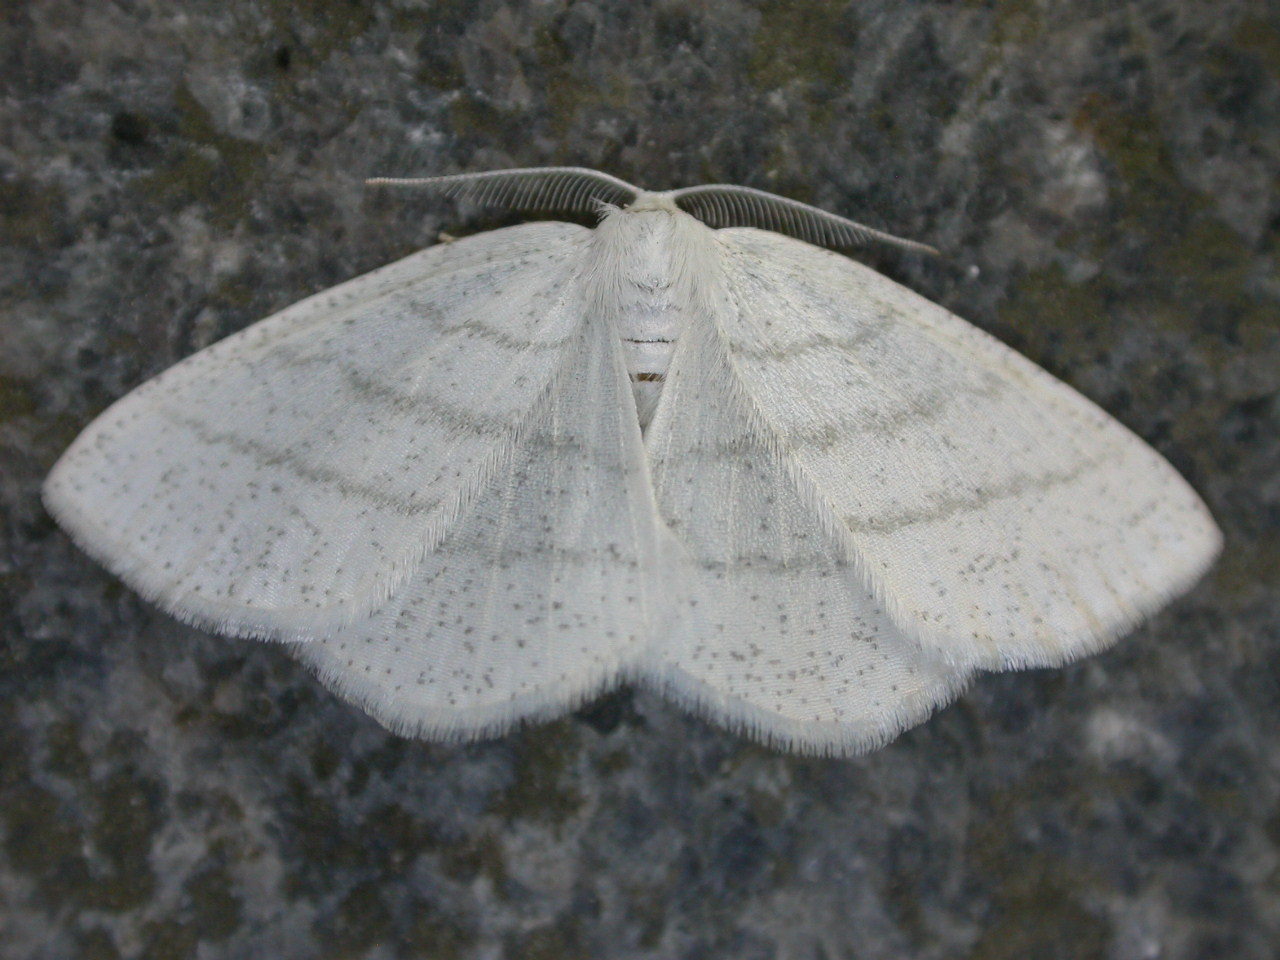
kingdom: Animalia
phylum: Arthropoda
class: Insecta
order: Lepidoptera
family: Geometridae
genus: Cabera
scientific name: Cabera pusaria
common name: Common white wave
